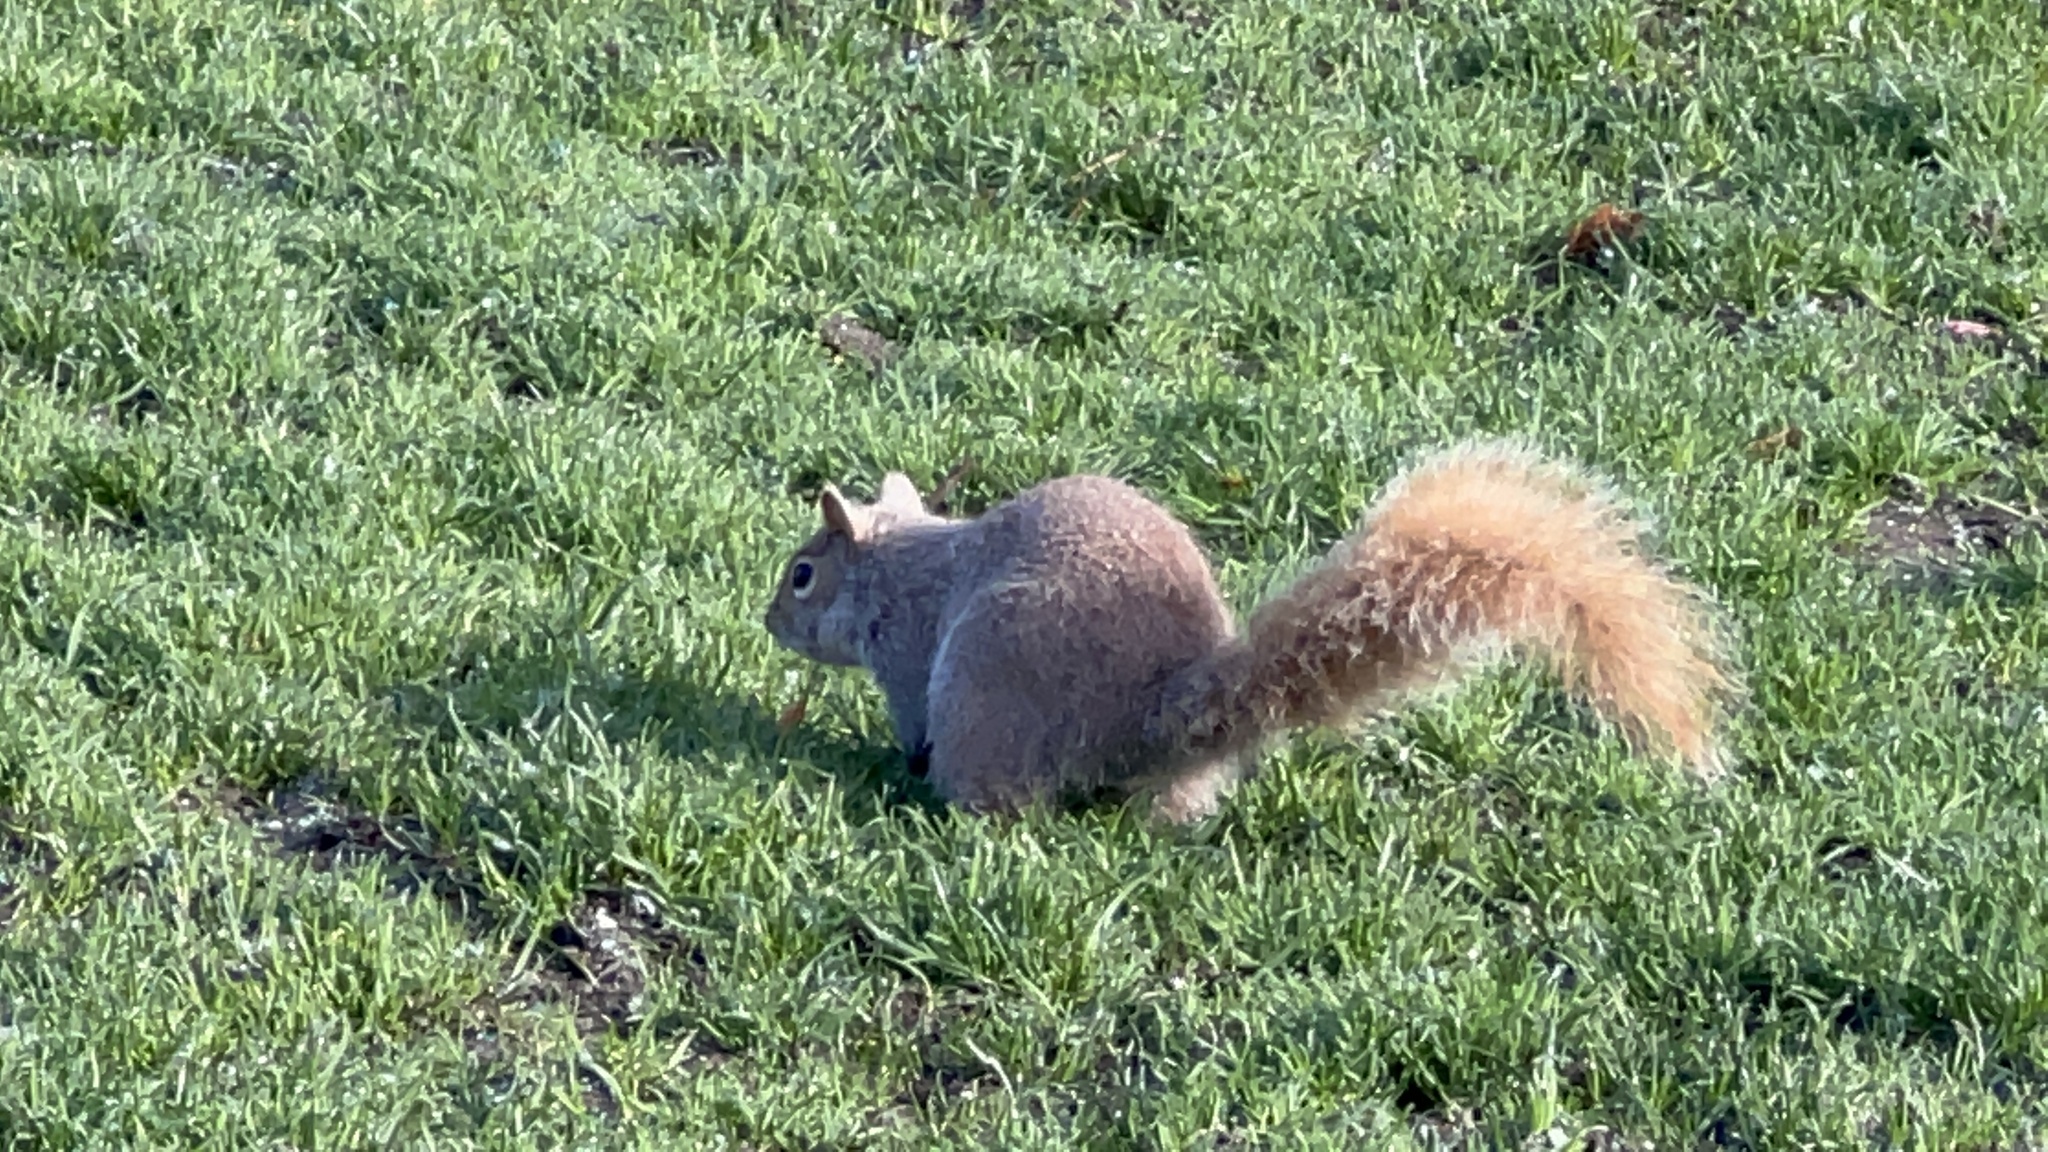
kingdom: Animalia
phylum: Chordata
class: Mammalia
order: Rodentia
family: Sciuridae
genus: Sciurus
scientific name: Sciurus carolinensis
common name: Eastern gray squirrel
